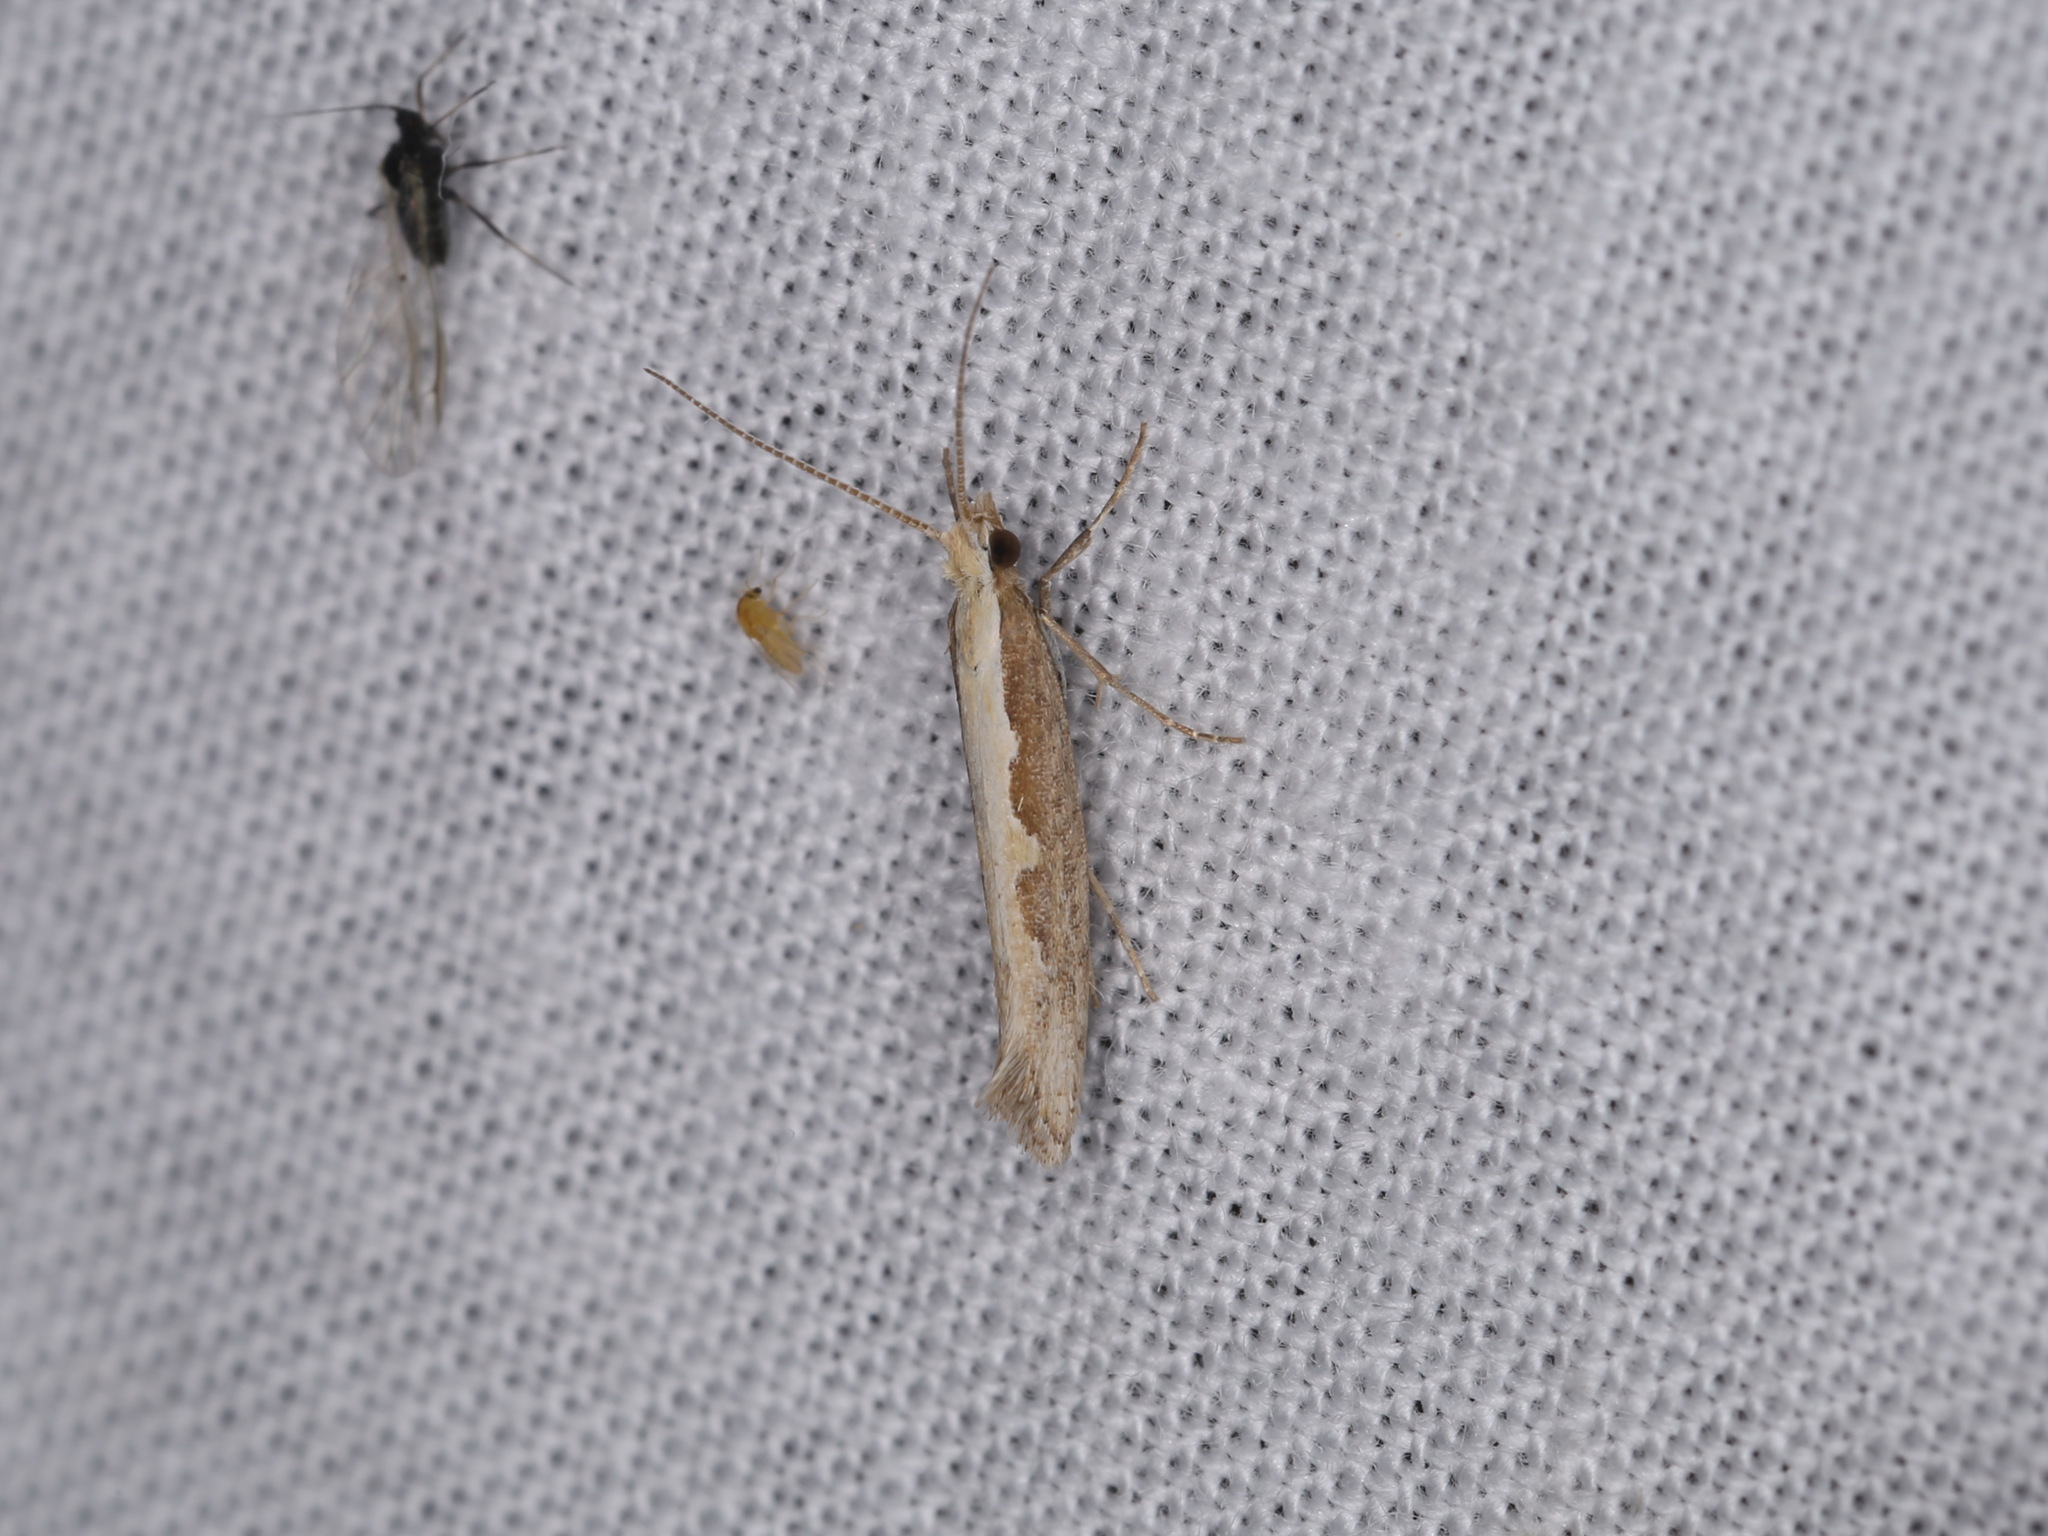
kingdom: Animalia
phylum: Arthropoda
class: Insecta
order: Lepidoptera
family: Plutellidae
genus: Plutella
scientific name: Plutella xylostella
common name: Diamond-back moth
